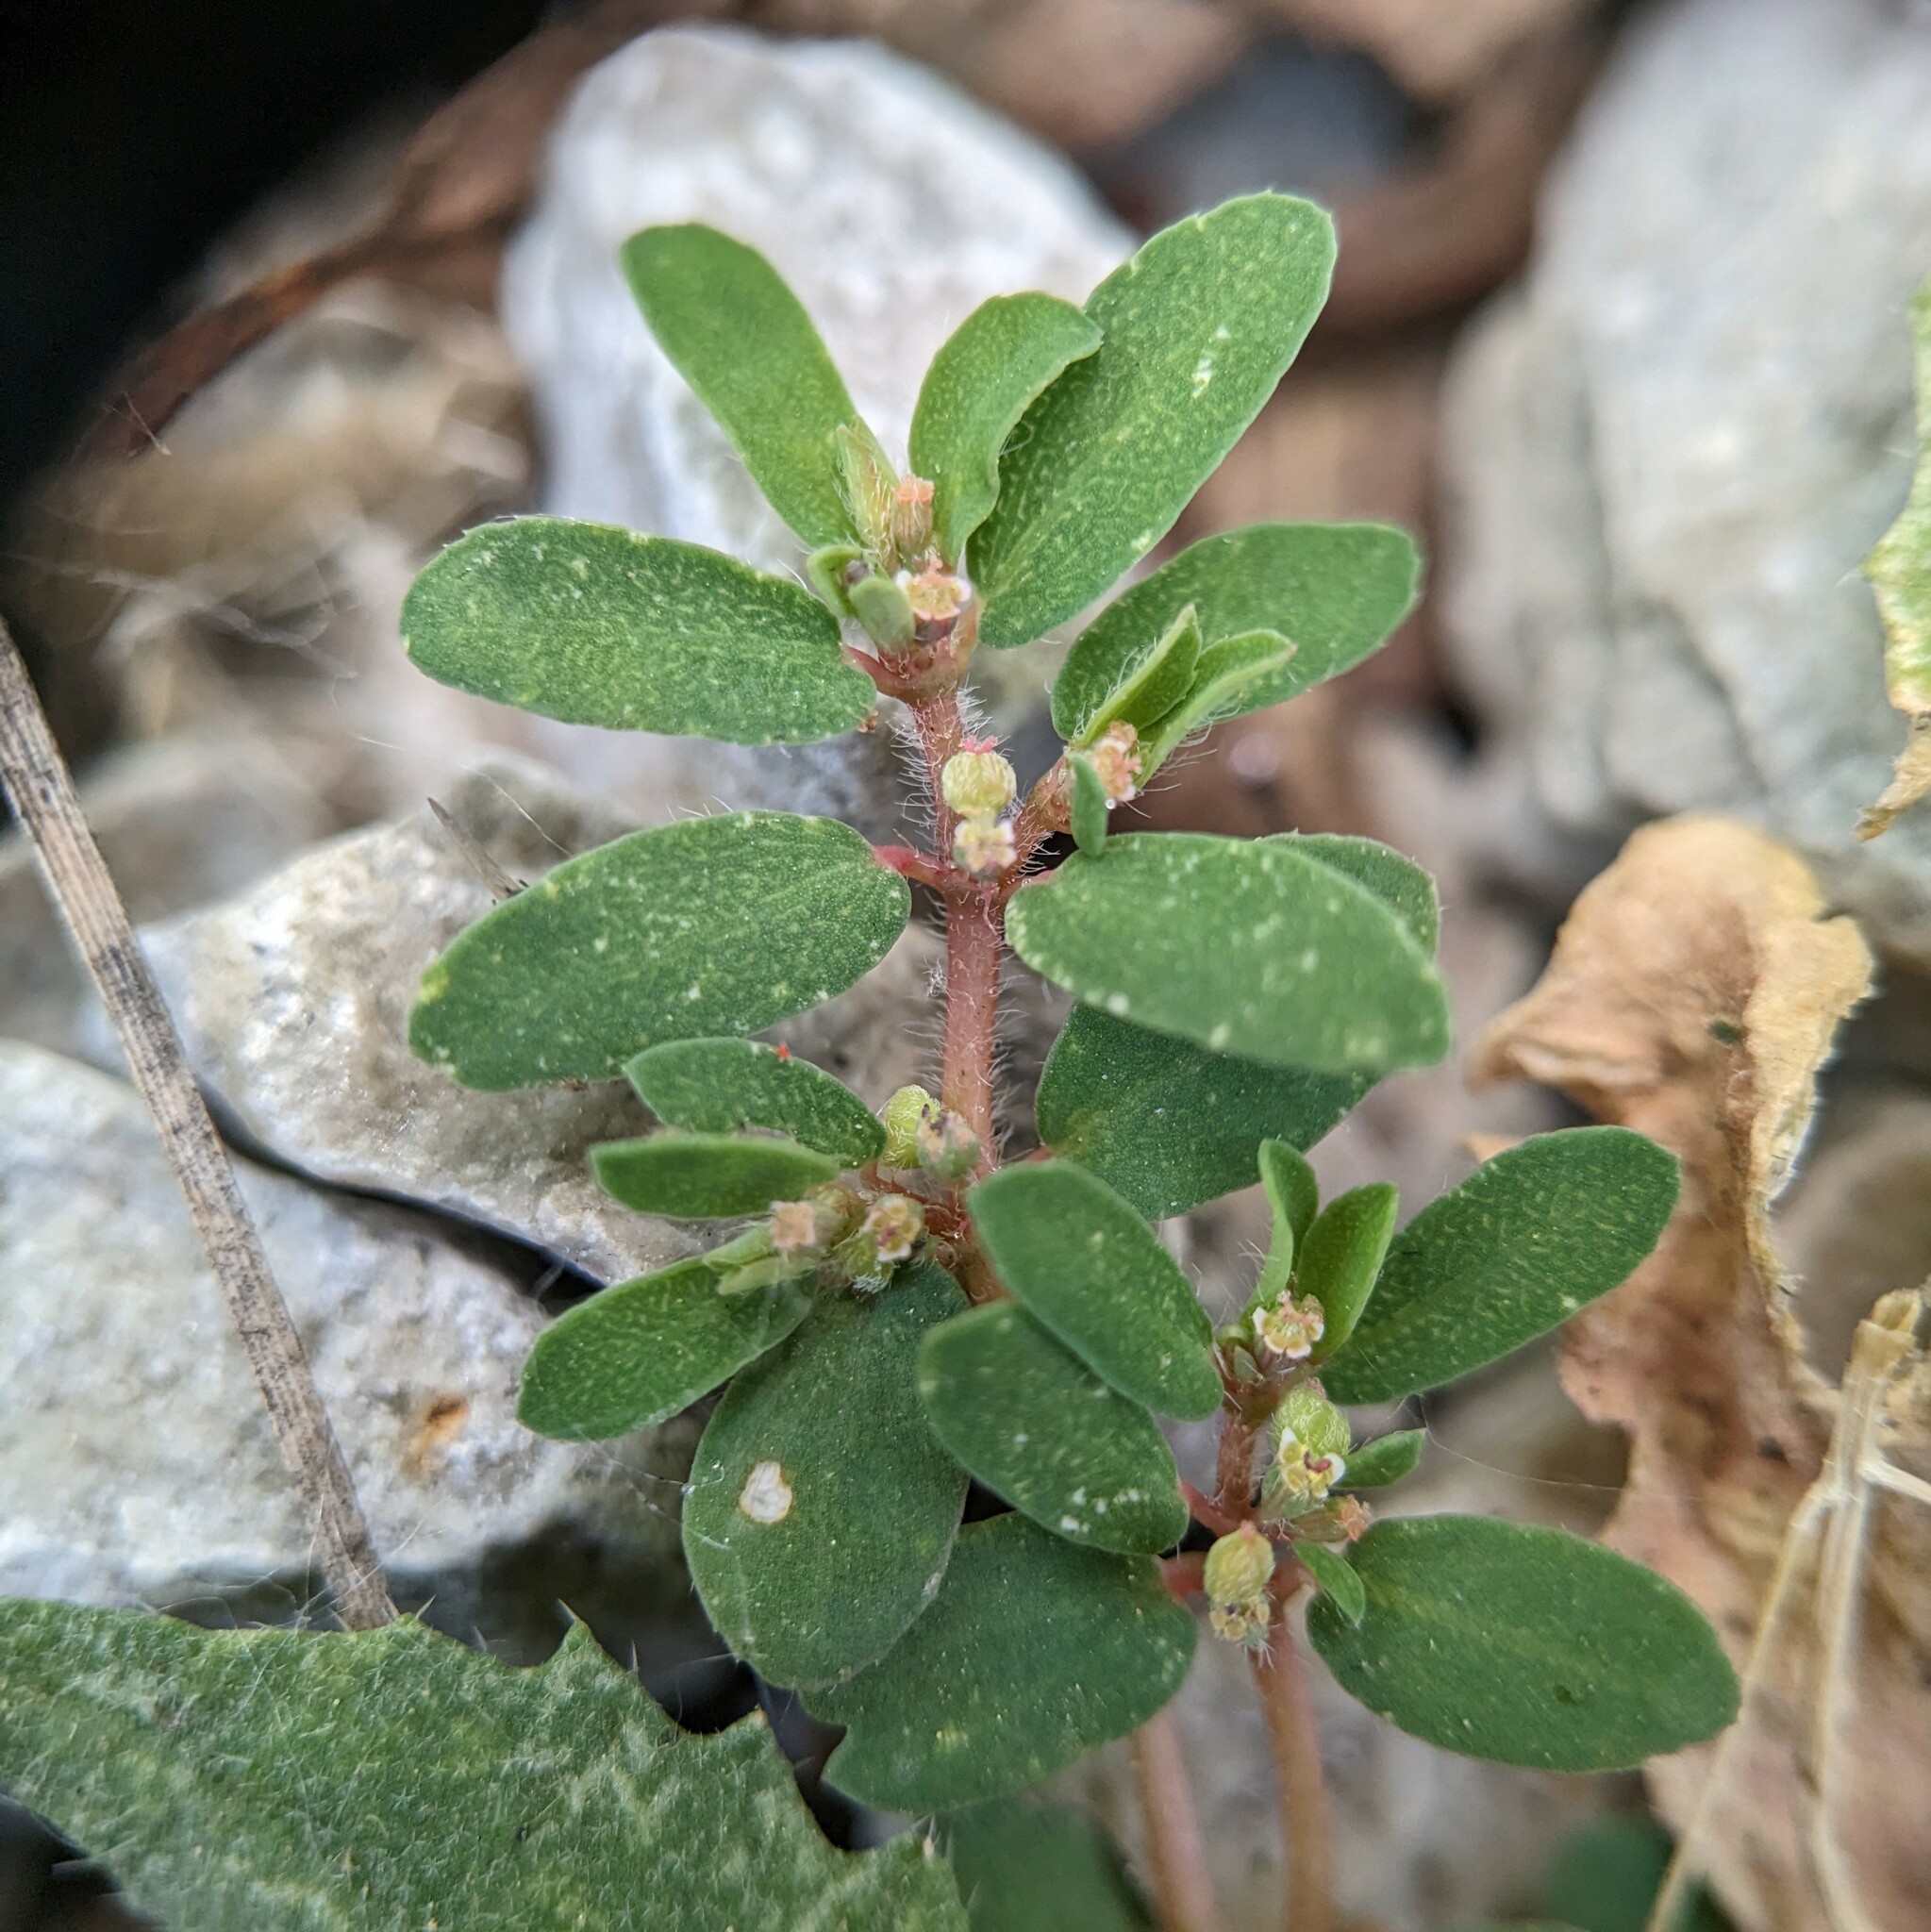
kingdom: Plantae
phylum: Tracheophyta
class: Magnoliopsida
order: Malpighiales
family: Euphorbiaceae
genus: Euphorbia
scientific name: Euphorbia maculata
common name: Spotted spurge
